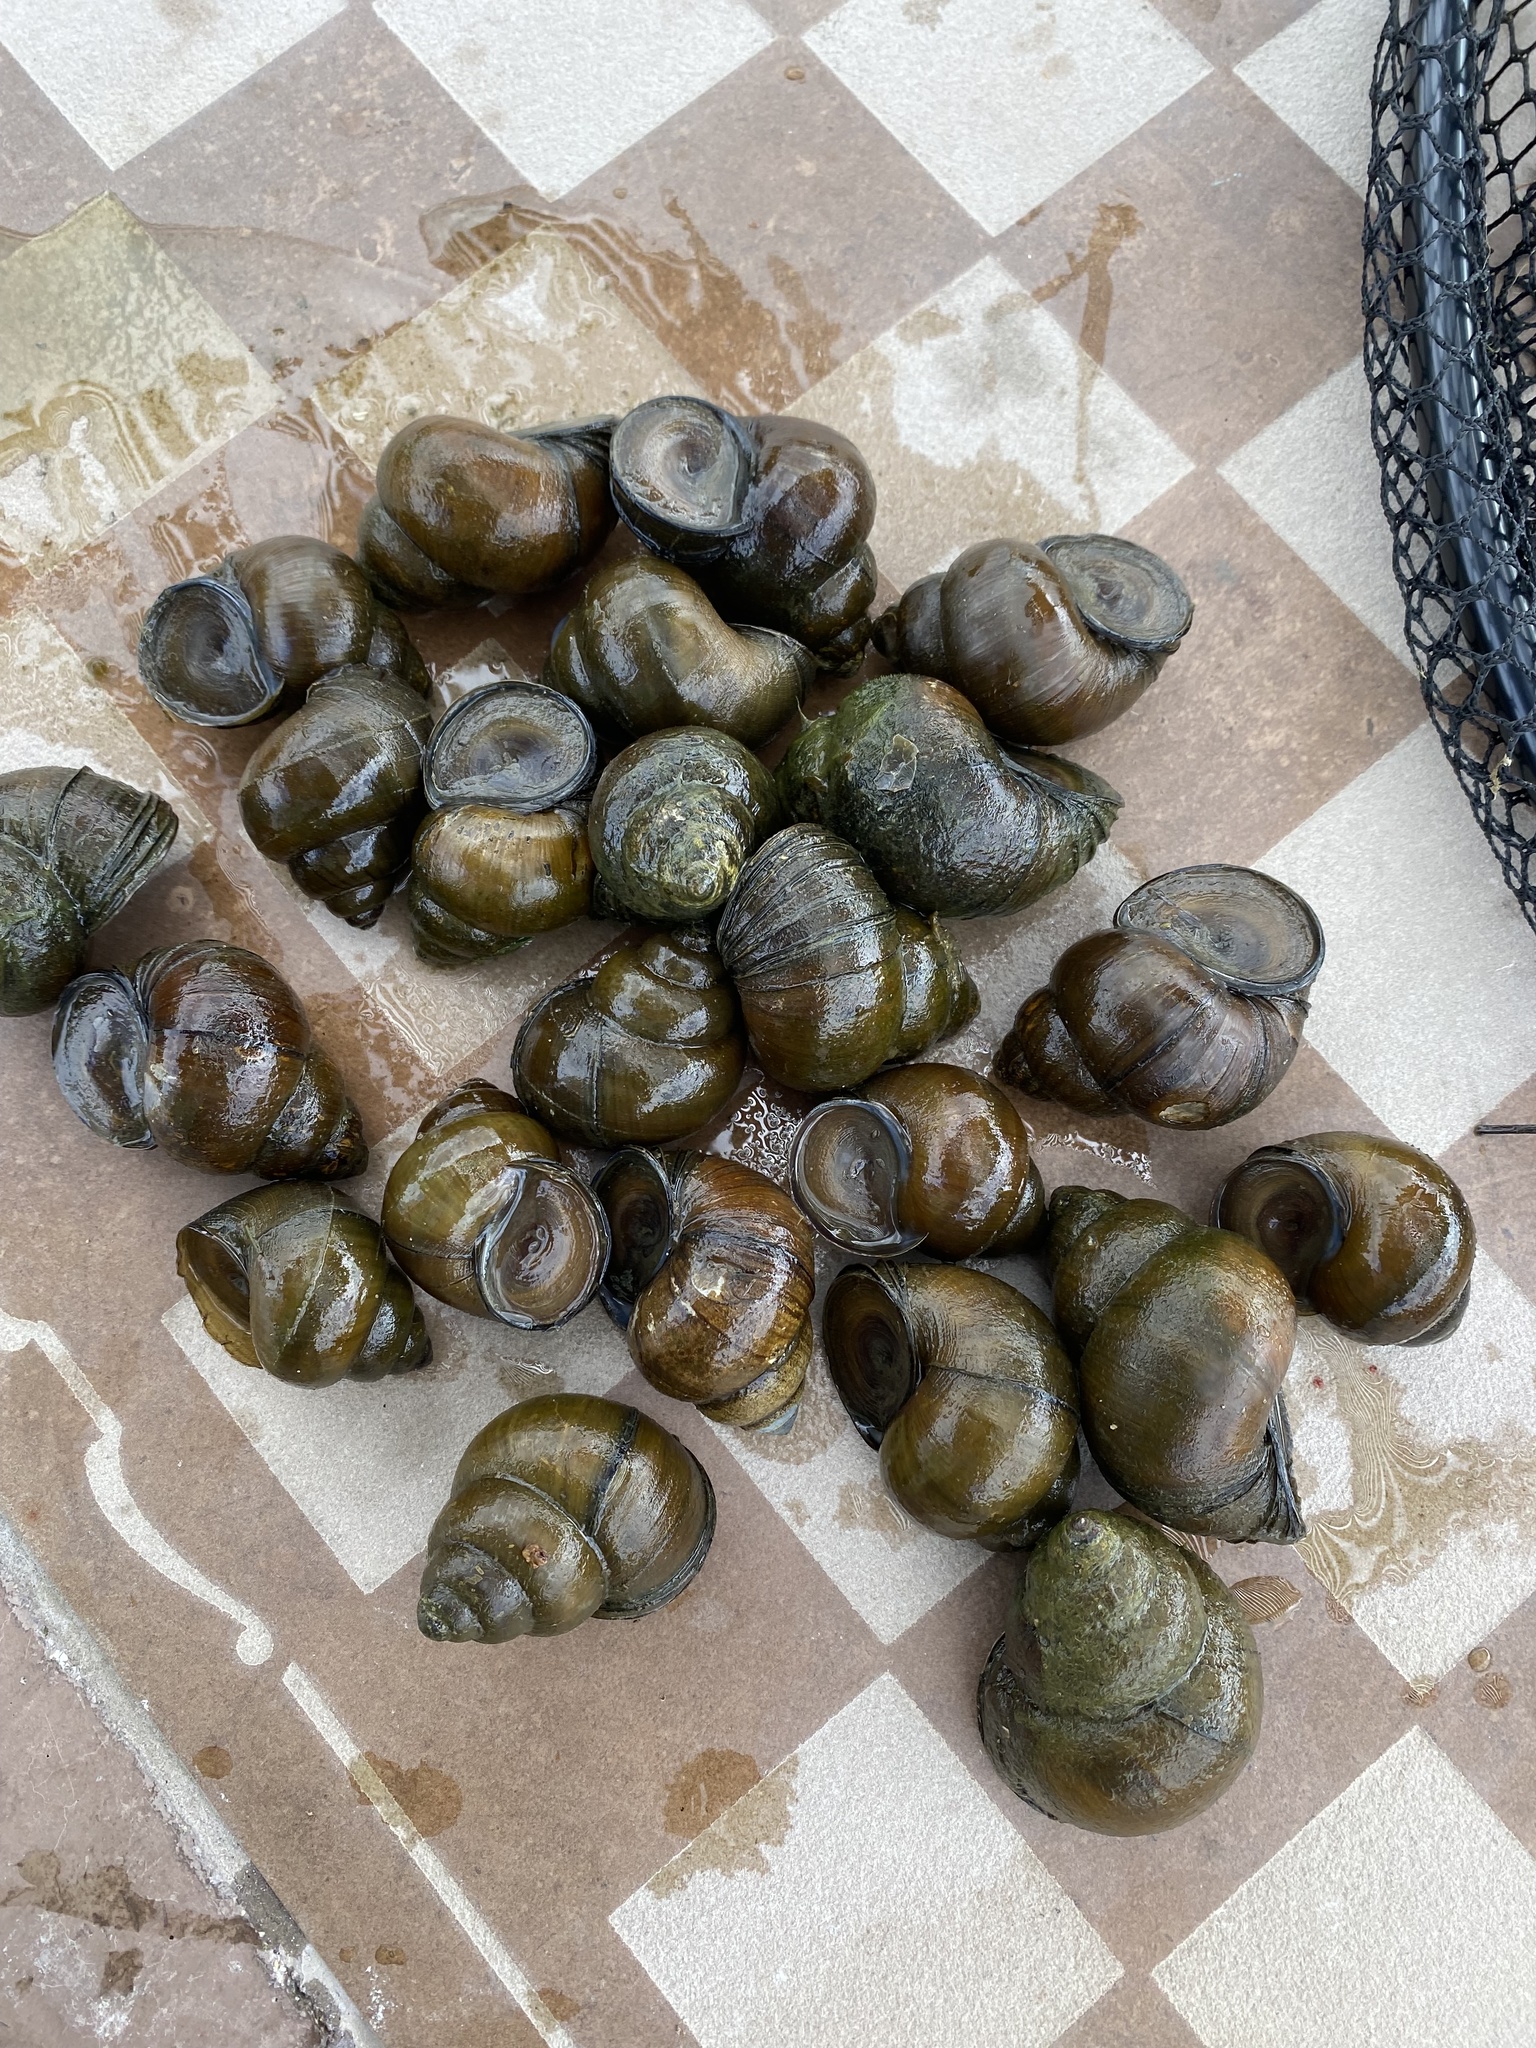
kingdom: Animalia
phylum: Mollusca
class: Gastropoda
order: Architaenioglossa
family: Viviparidae
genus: Cipangopaludina
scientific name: Cipangopaludina chinensis
